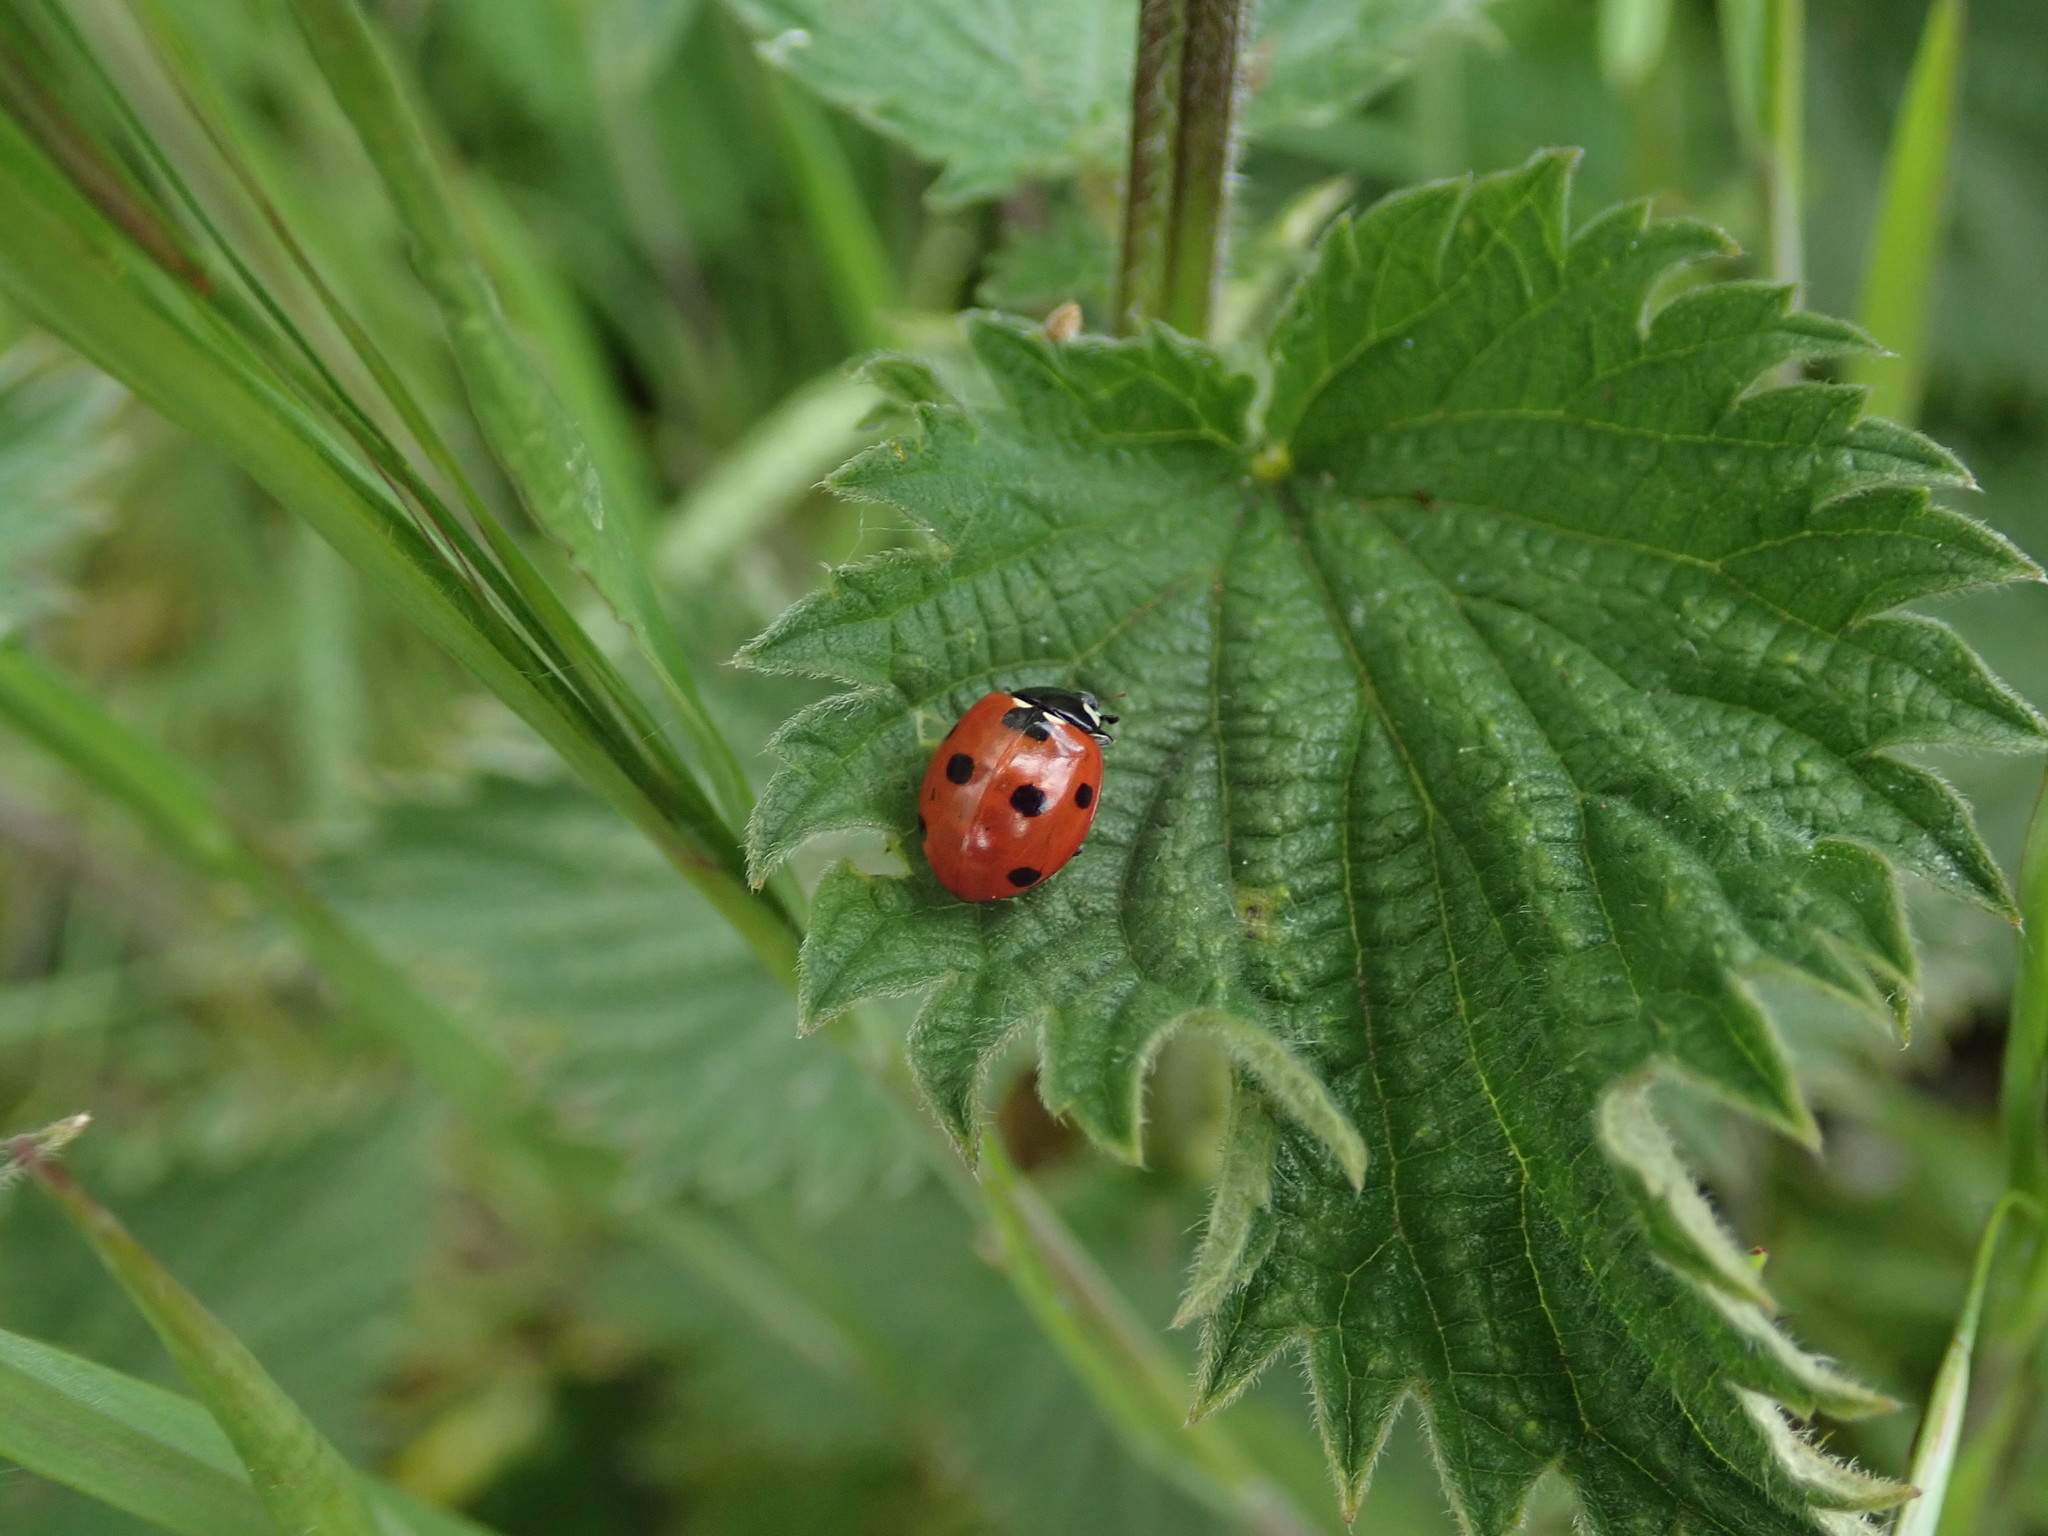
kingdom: Animalia
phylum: Arthropoda
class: Insecta
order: Coleoptera
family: Coccinellidae
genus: Coccinella
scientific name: Coccinella septempunctata
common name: Sevenspotted lady beetle
